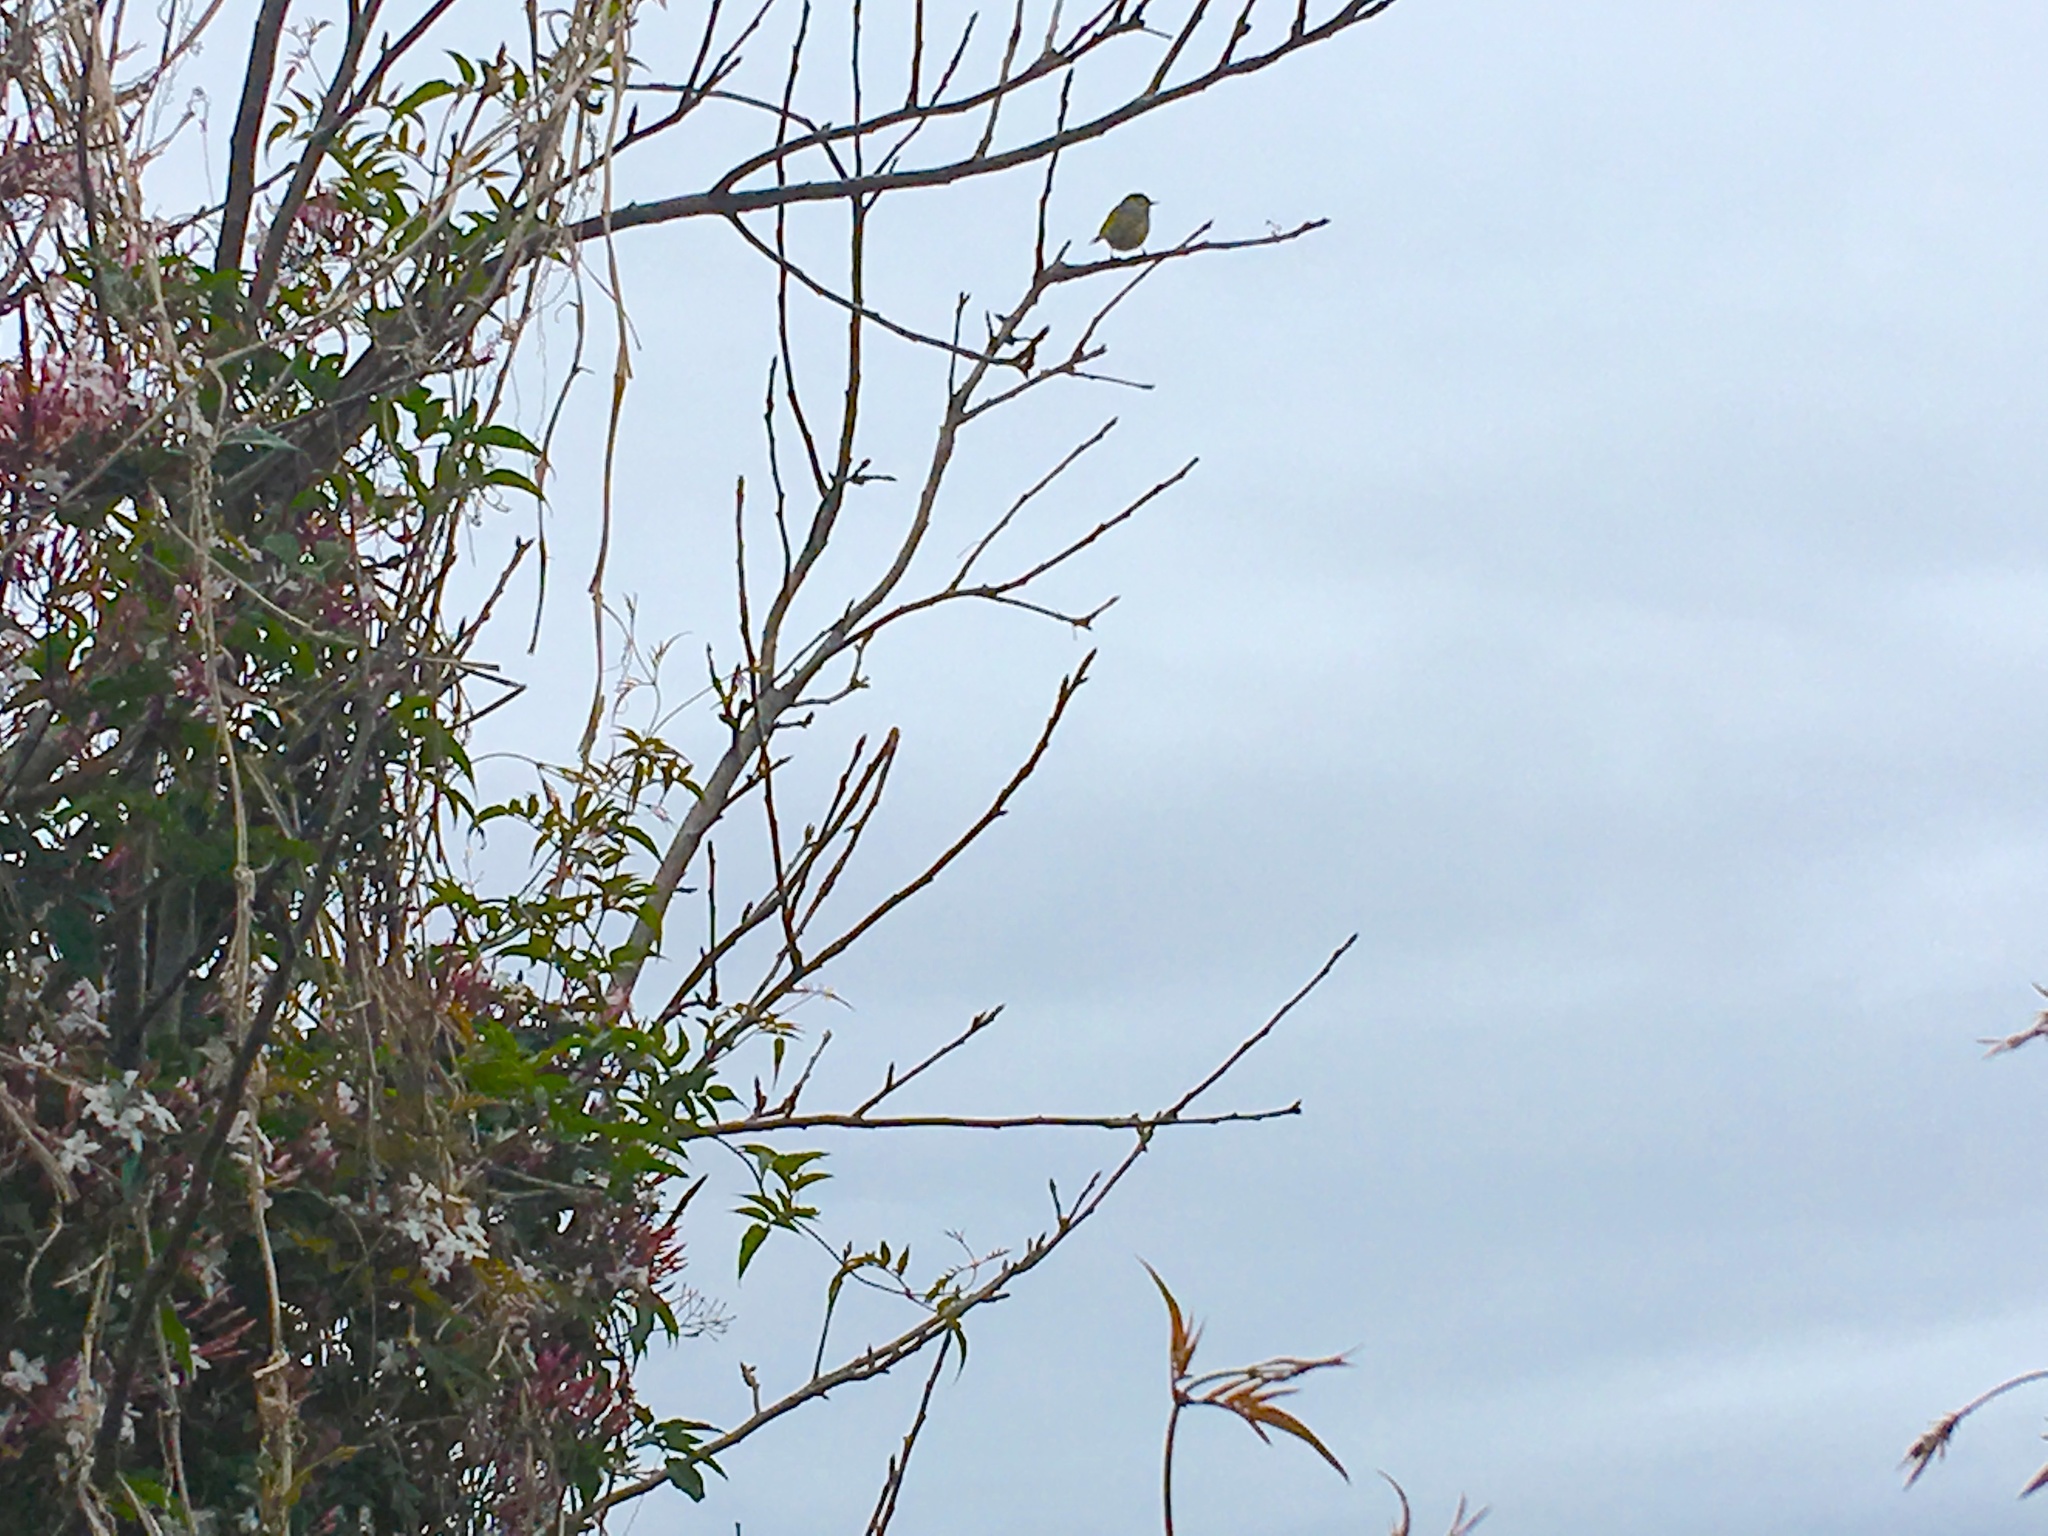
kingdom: Animalia
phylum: Chordata
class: Aves
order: Passeriformes
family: Zosteropidae
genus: Zosterops
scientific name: Zosterops lateralis
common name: Silvereye
